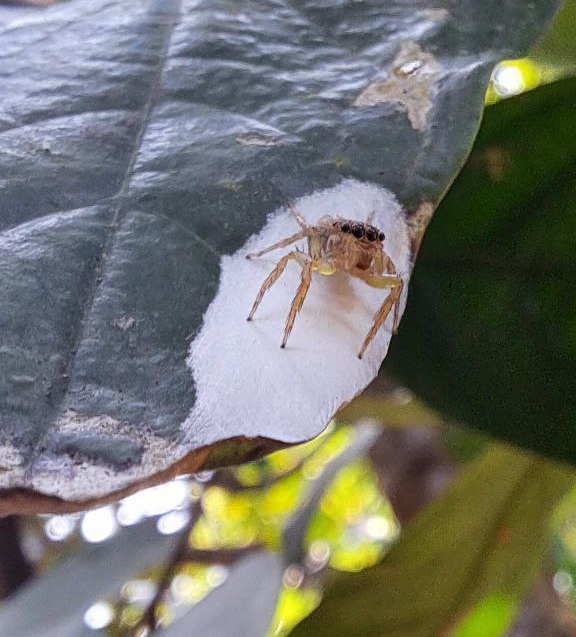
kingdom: Animalia
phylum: Arthropoda
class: Arachnida
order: Araneae
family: Salticidae
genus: Cytaea
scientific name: Cytaea oreophila
